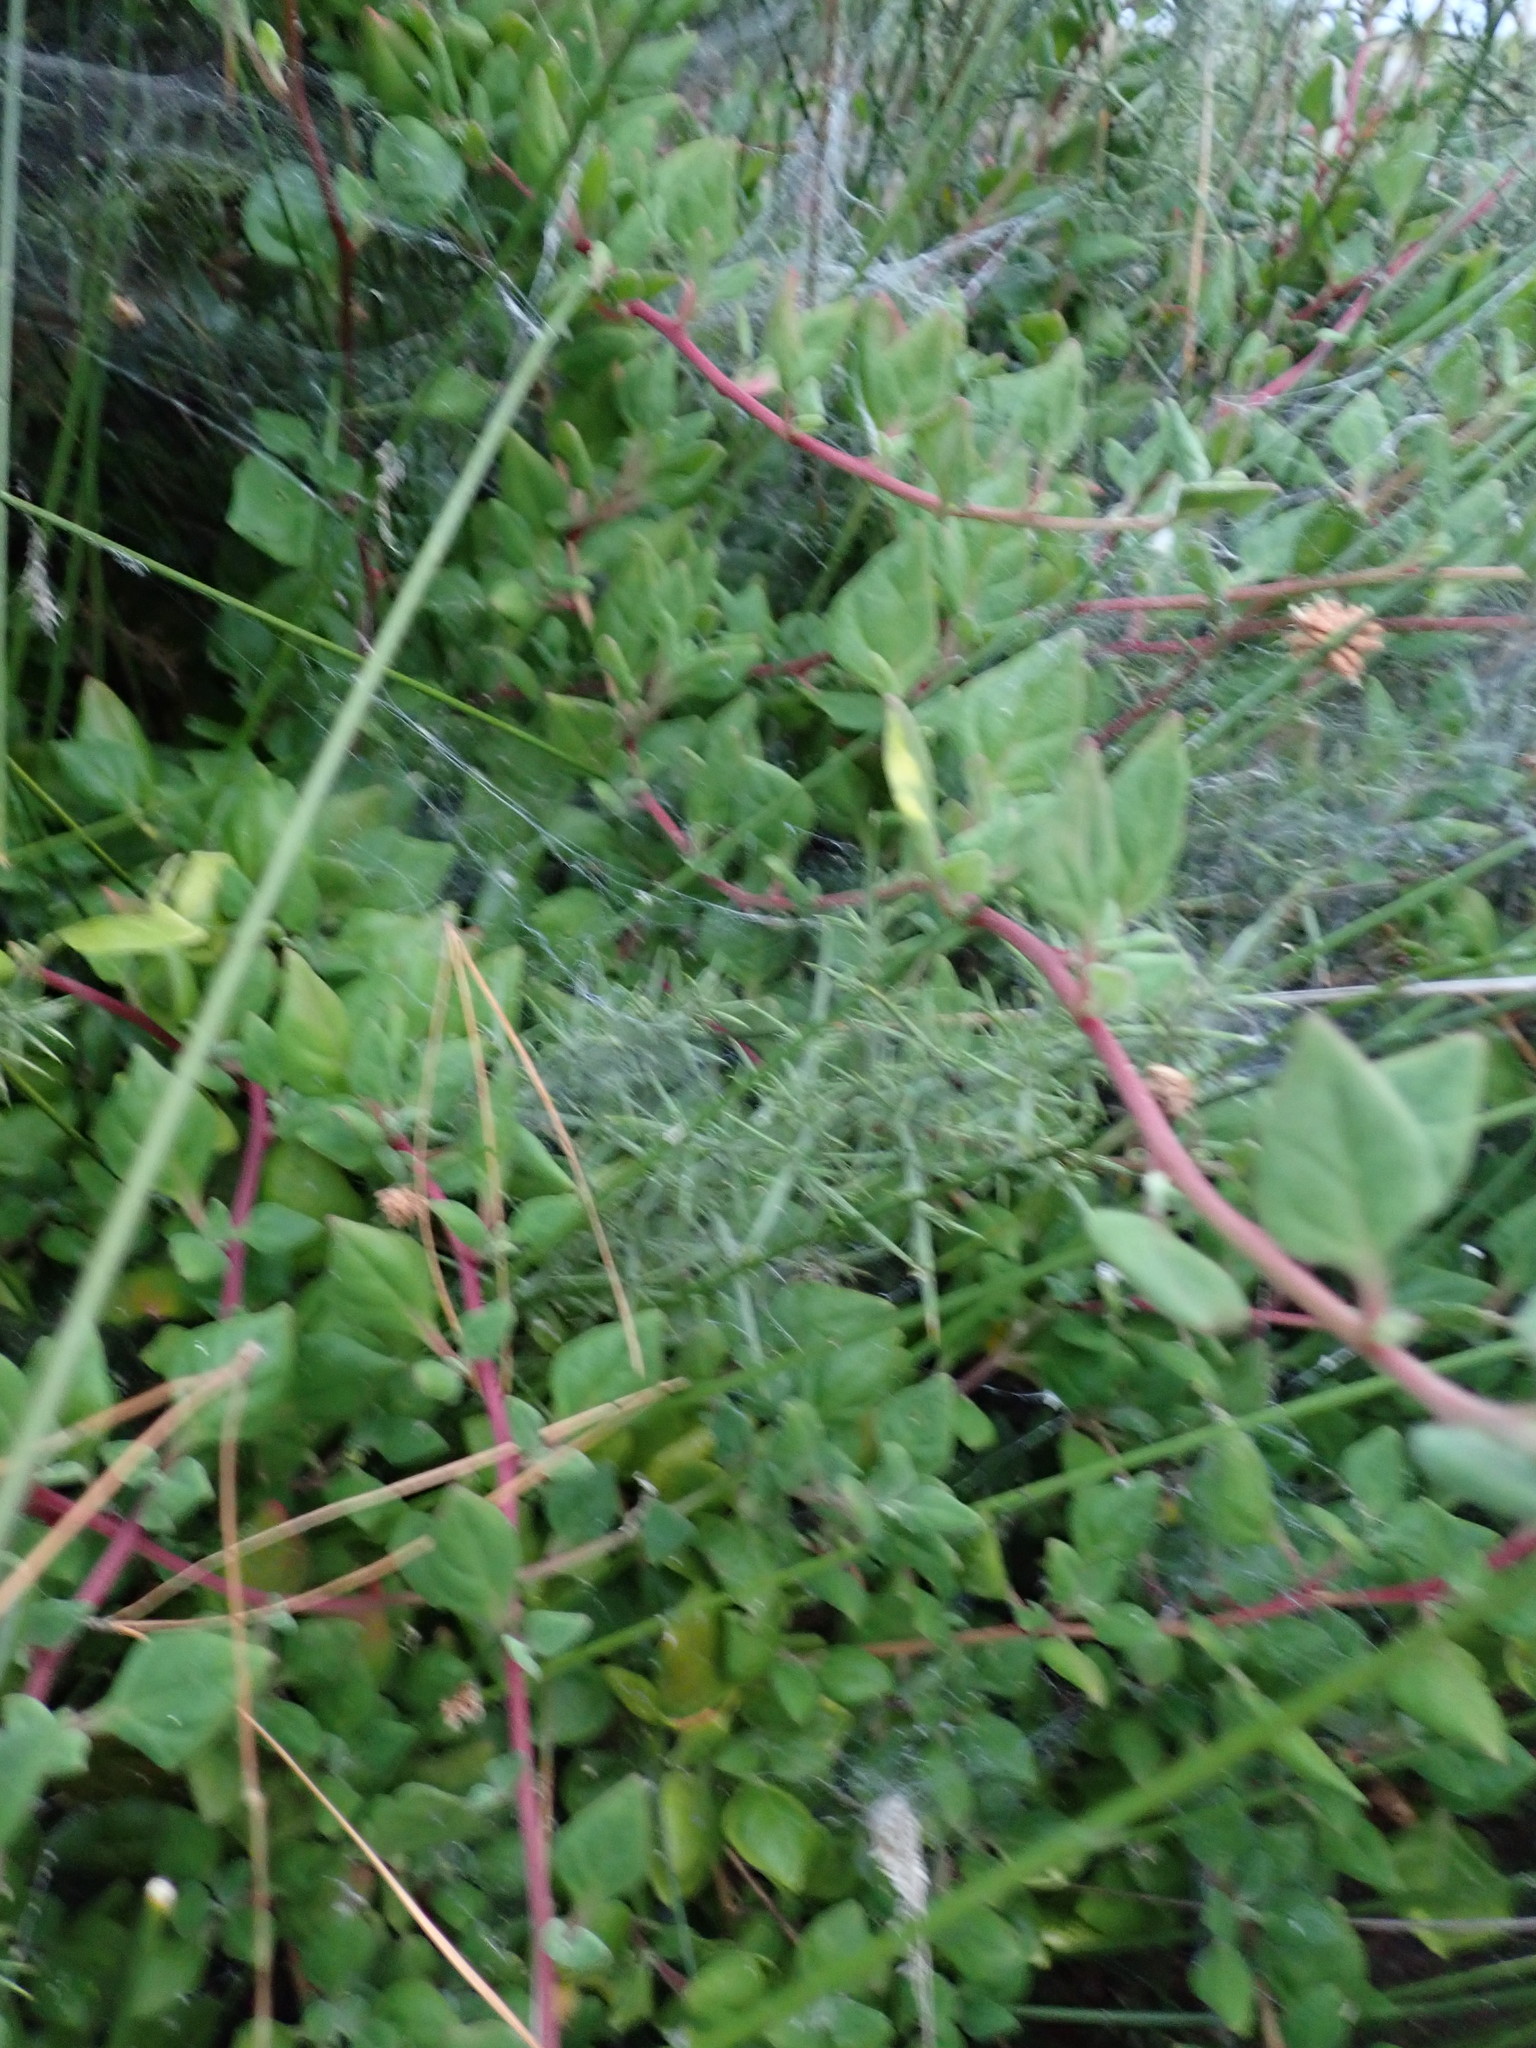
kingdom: Plantae
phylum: Tracheophyta
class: Magnoliopsida
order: Caryophyllales
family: Aizoaceae
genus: Tetragonia
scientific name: Tetragonia implexicoma
